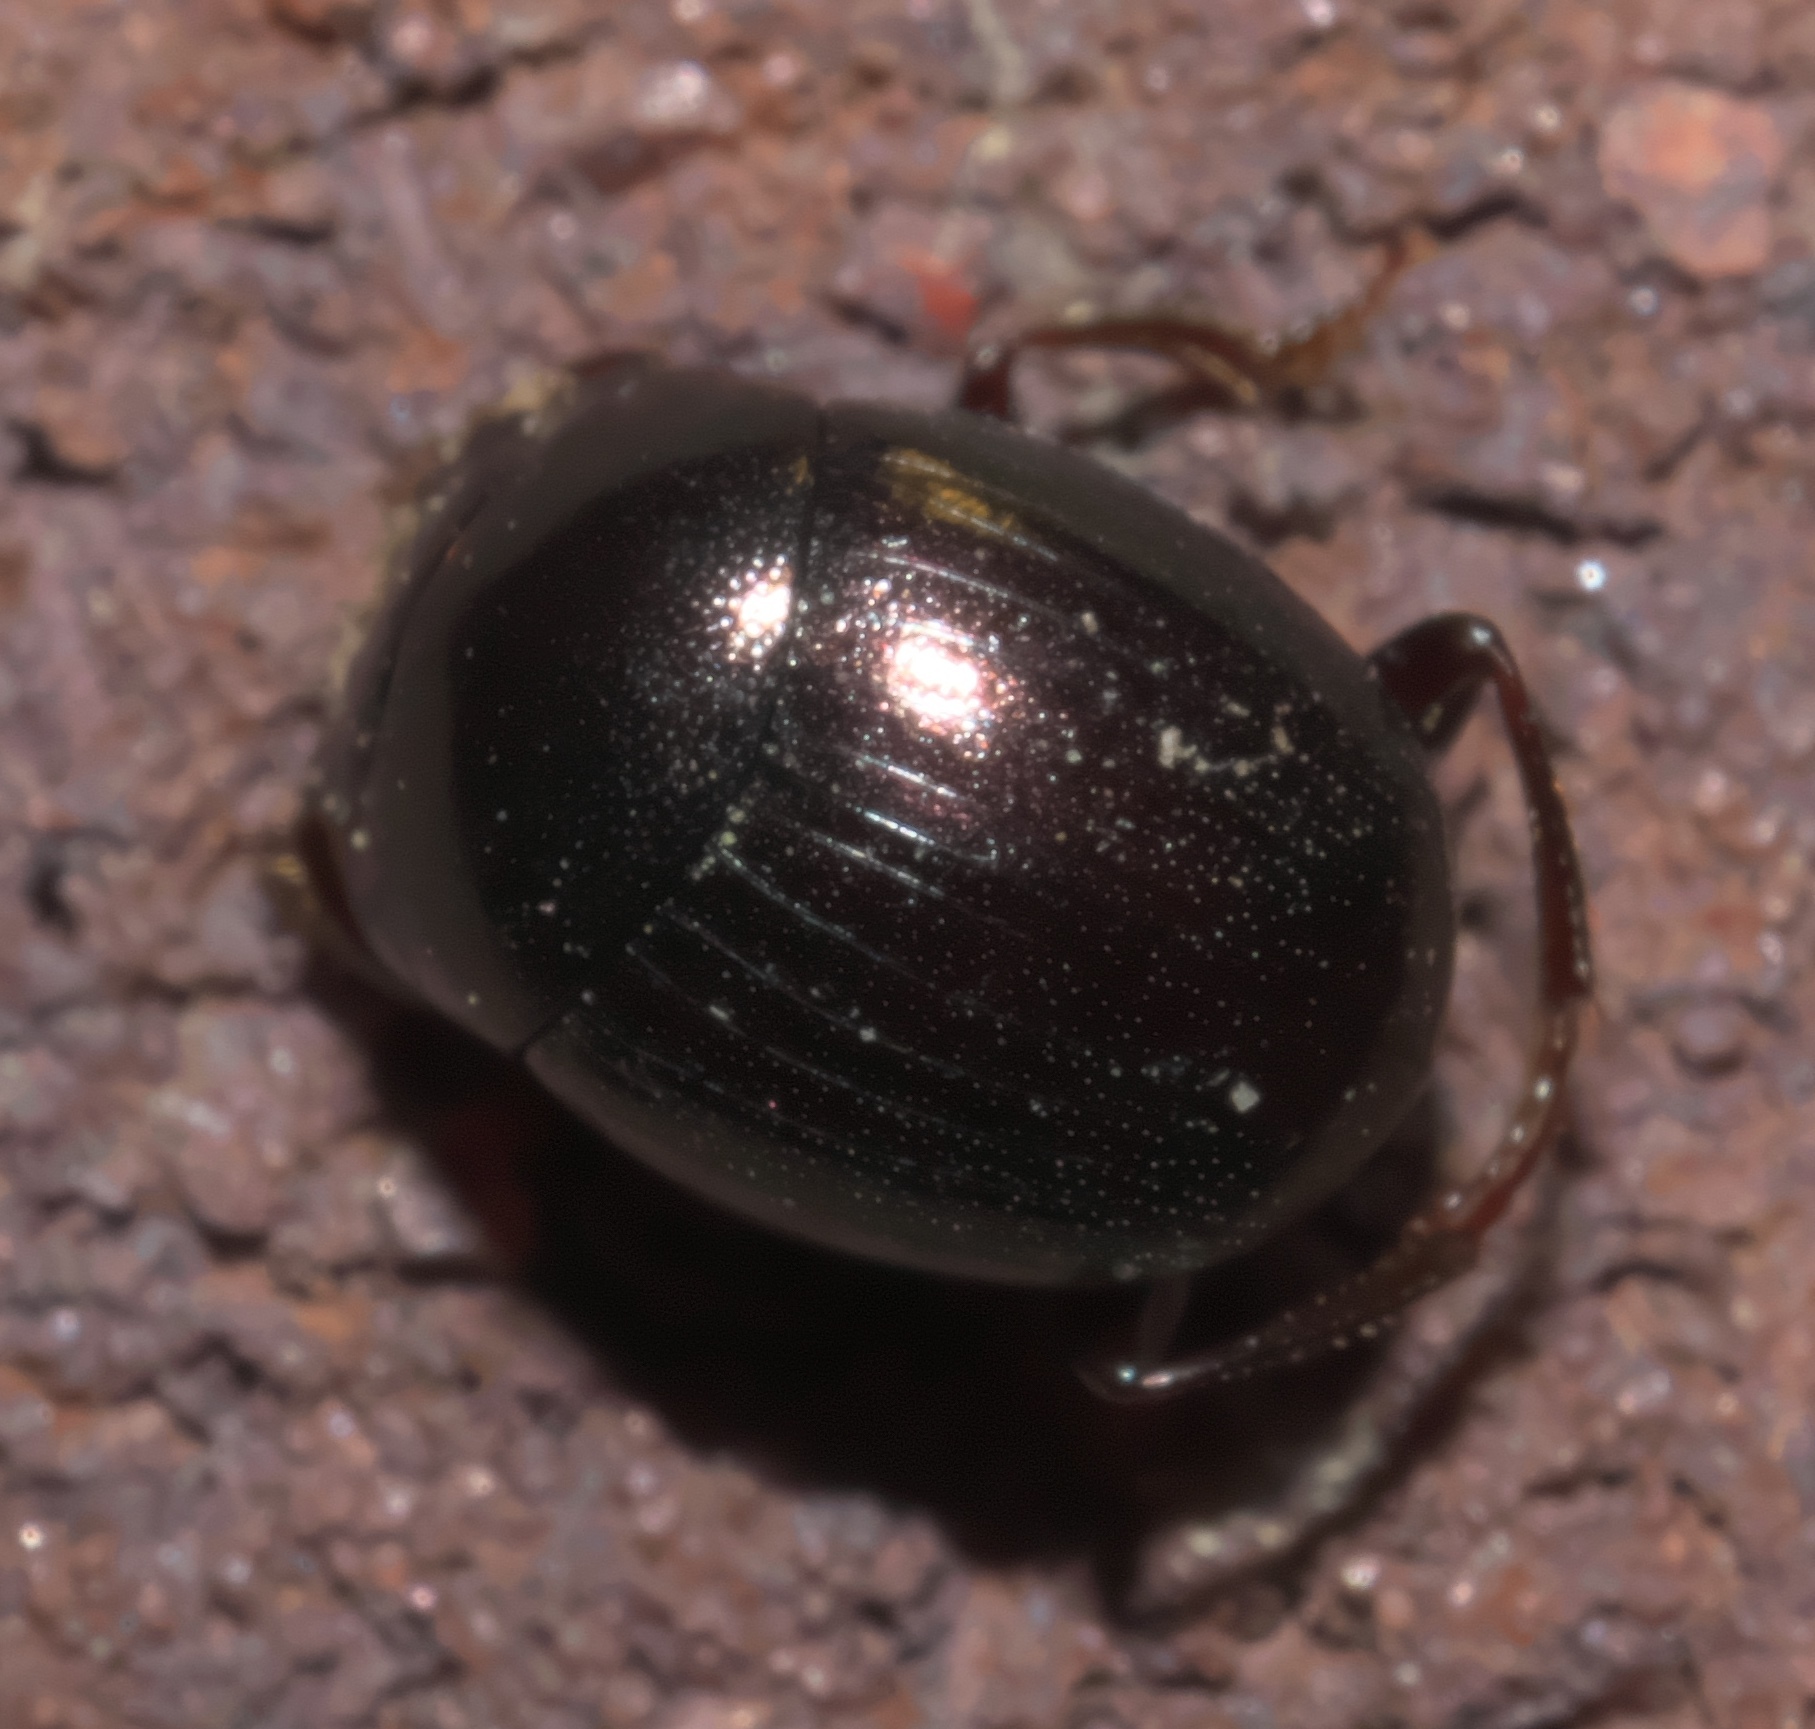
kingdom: Animalia
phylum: Arthropoda
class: Insecta
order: Coleoptera
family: Scarabaeidae
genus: Pseudocanthon
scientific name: Pseudocanthon perplexus
